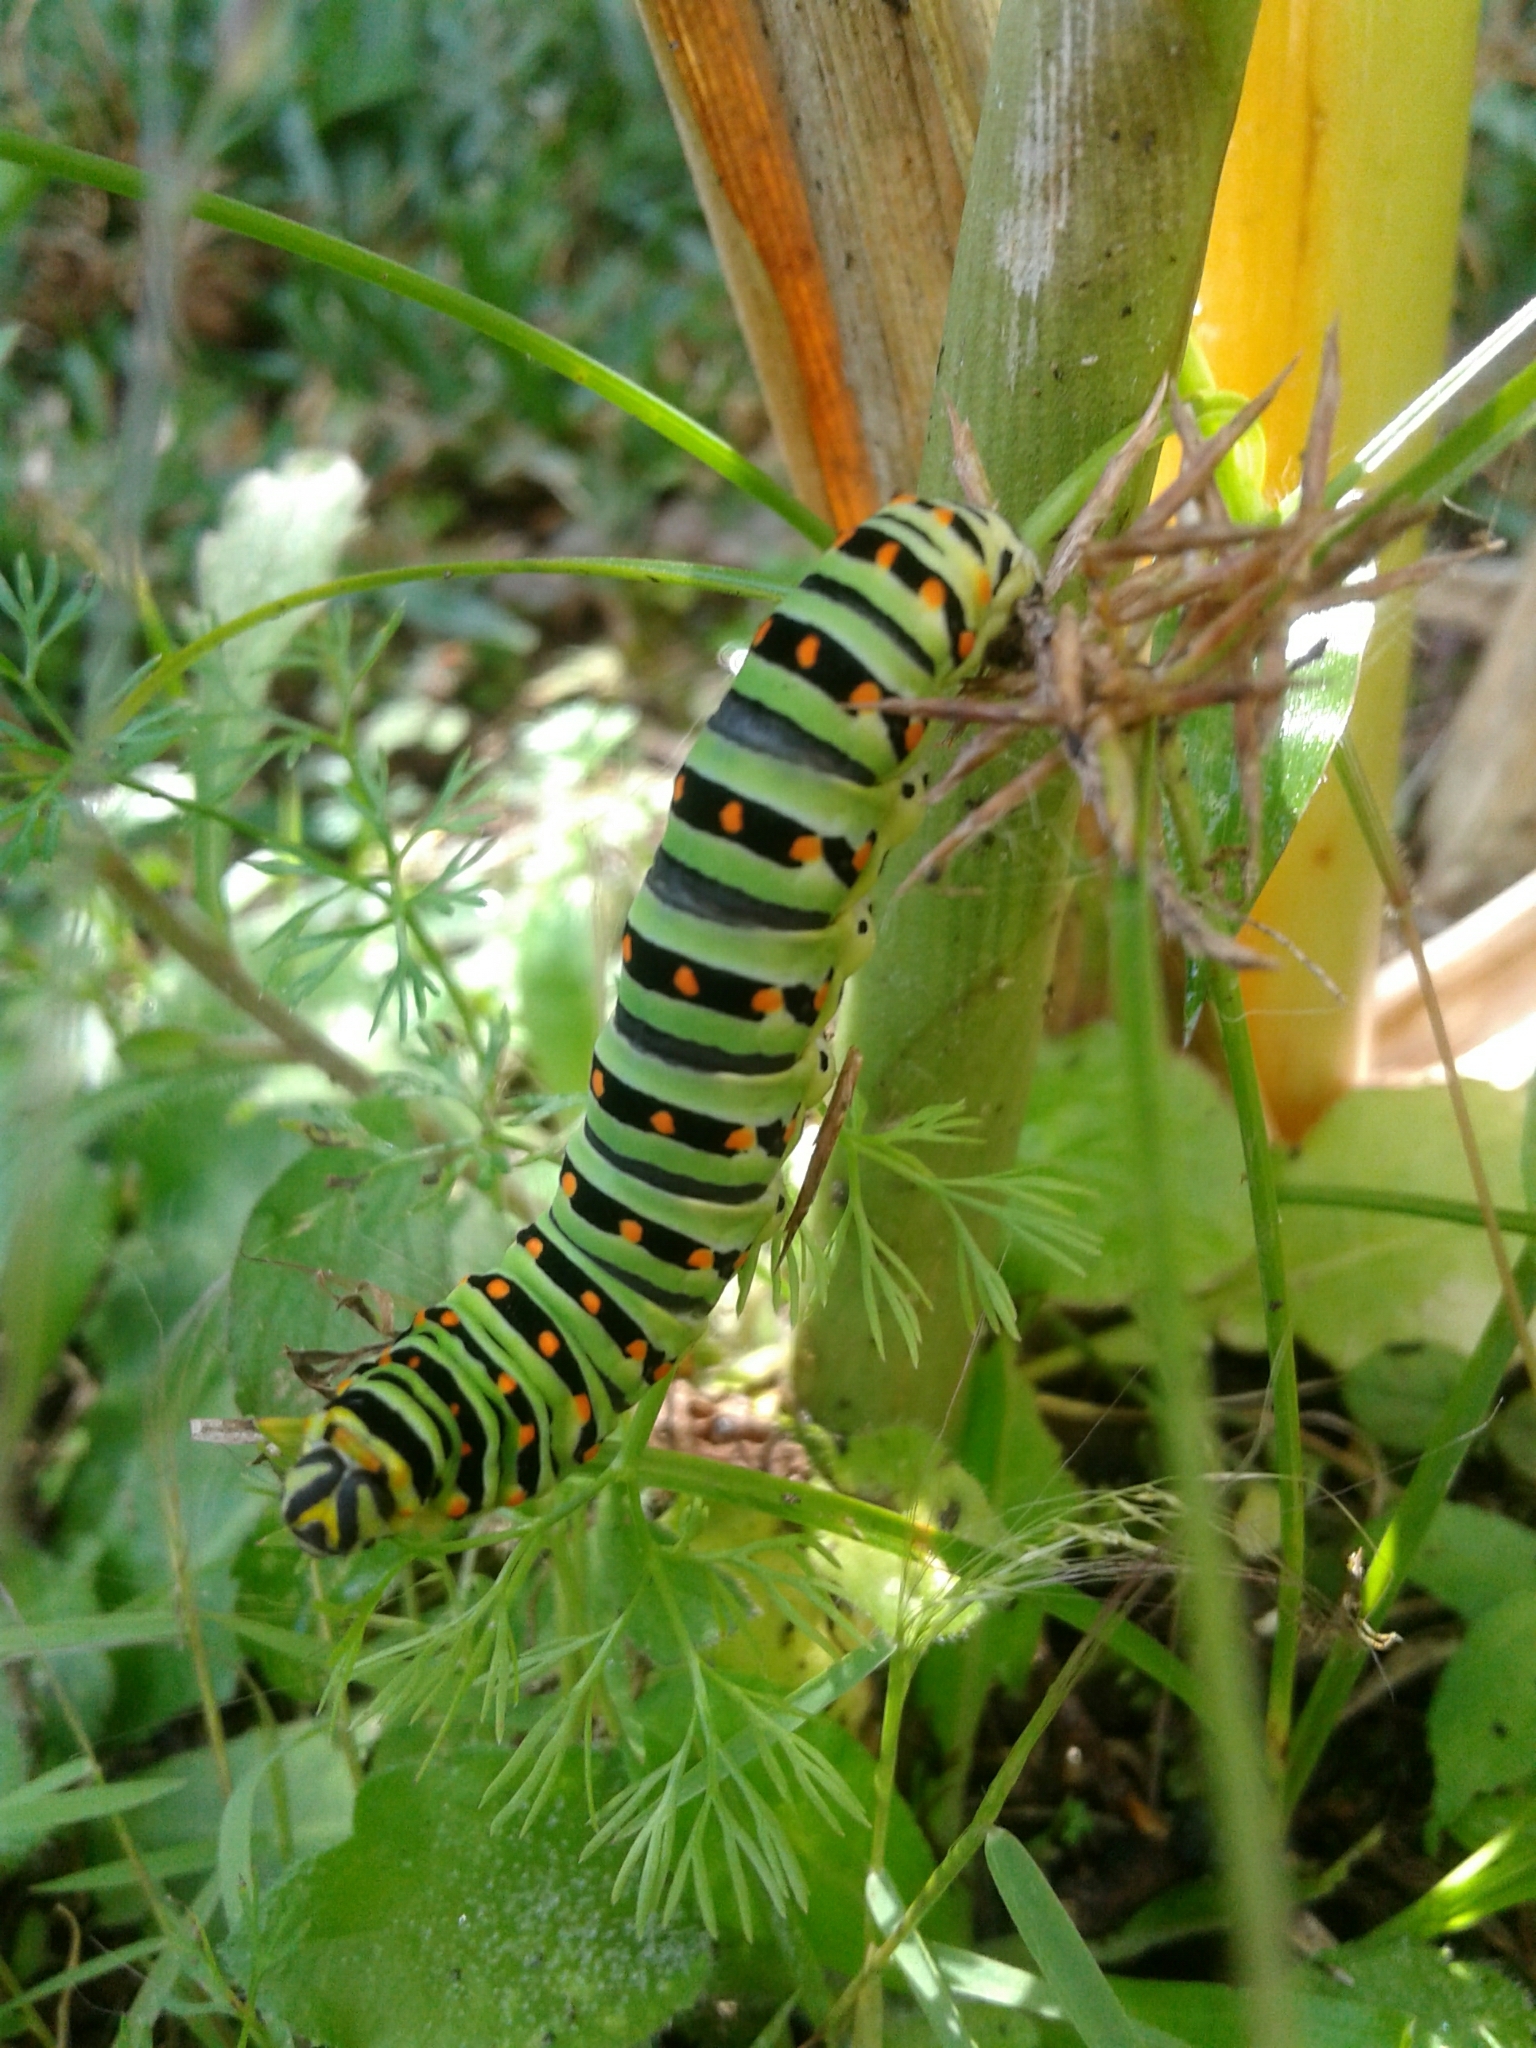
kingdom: Animalia
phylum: Arthropoda
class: Insecta
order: Lepidoptera
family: Papilionidae
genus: Papilio
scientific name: Papilio polyxenes
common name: Black swallowtail
